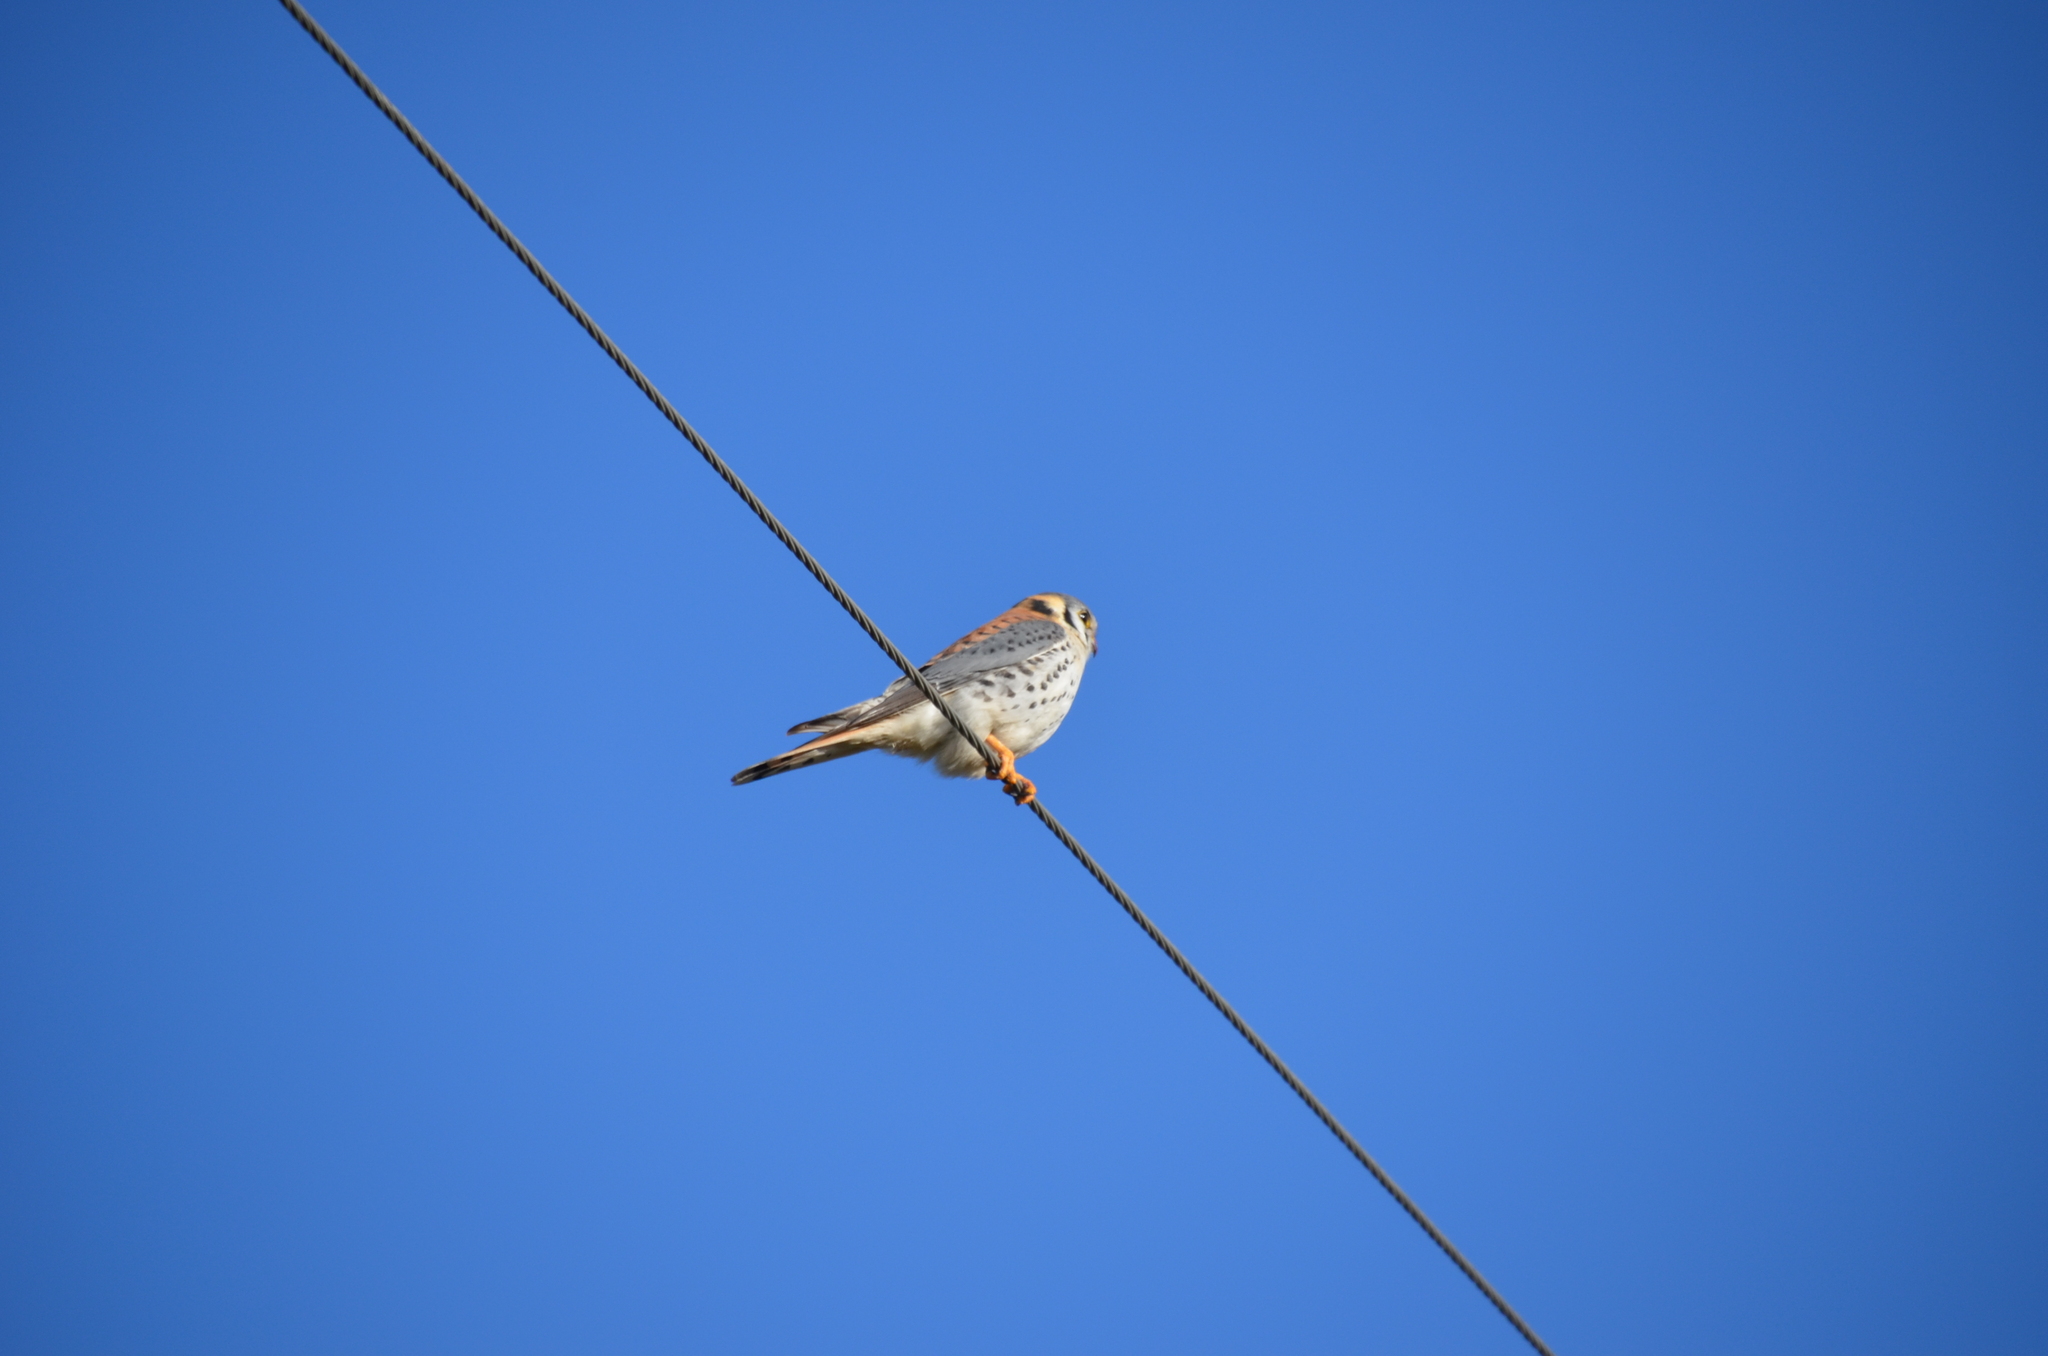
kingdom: Animalia
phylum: Chordata
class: Aves
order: Falconiformes
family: Falconidae
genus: Falco
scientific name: Falco sparverius
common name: American kestrel
